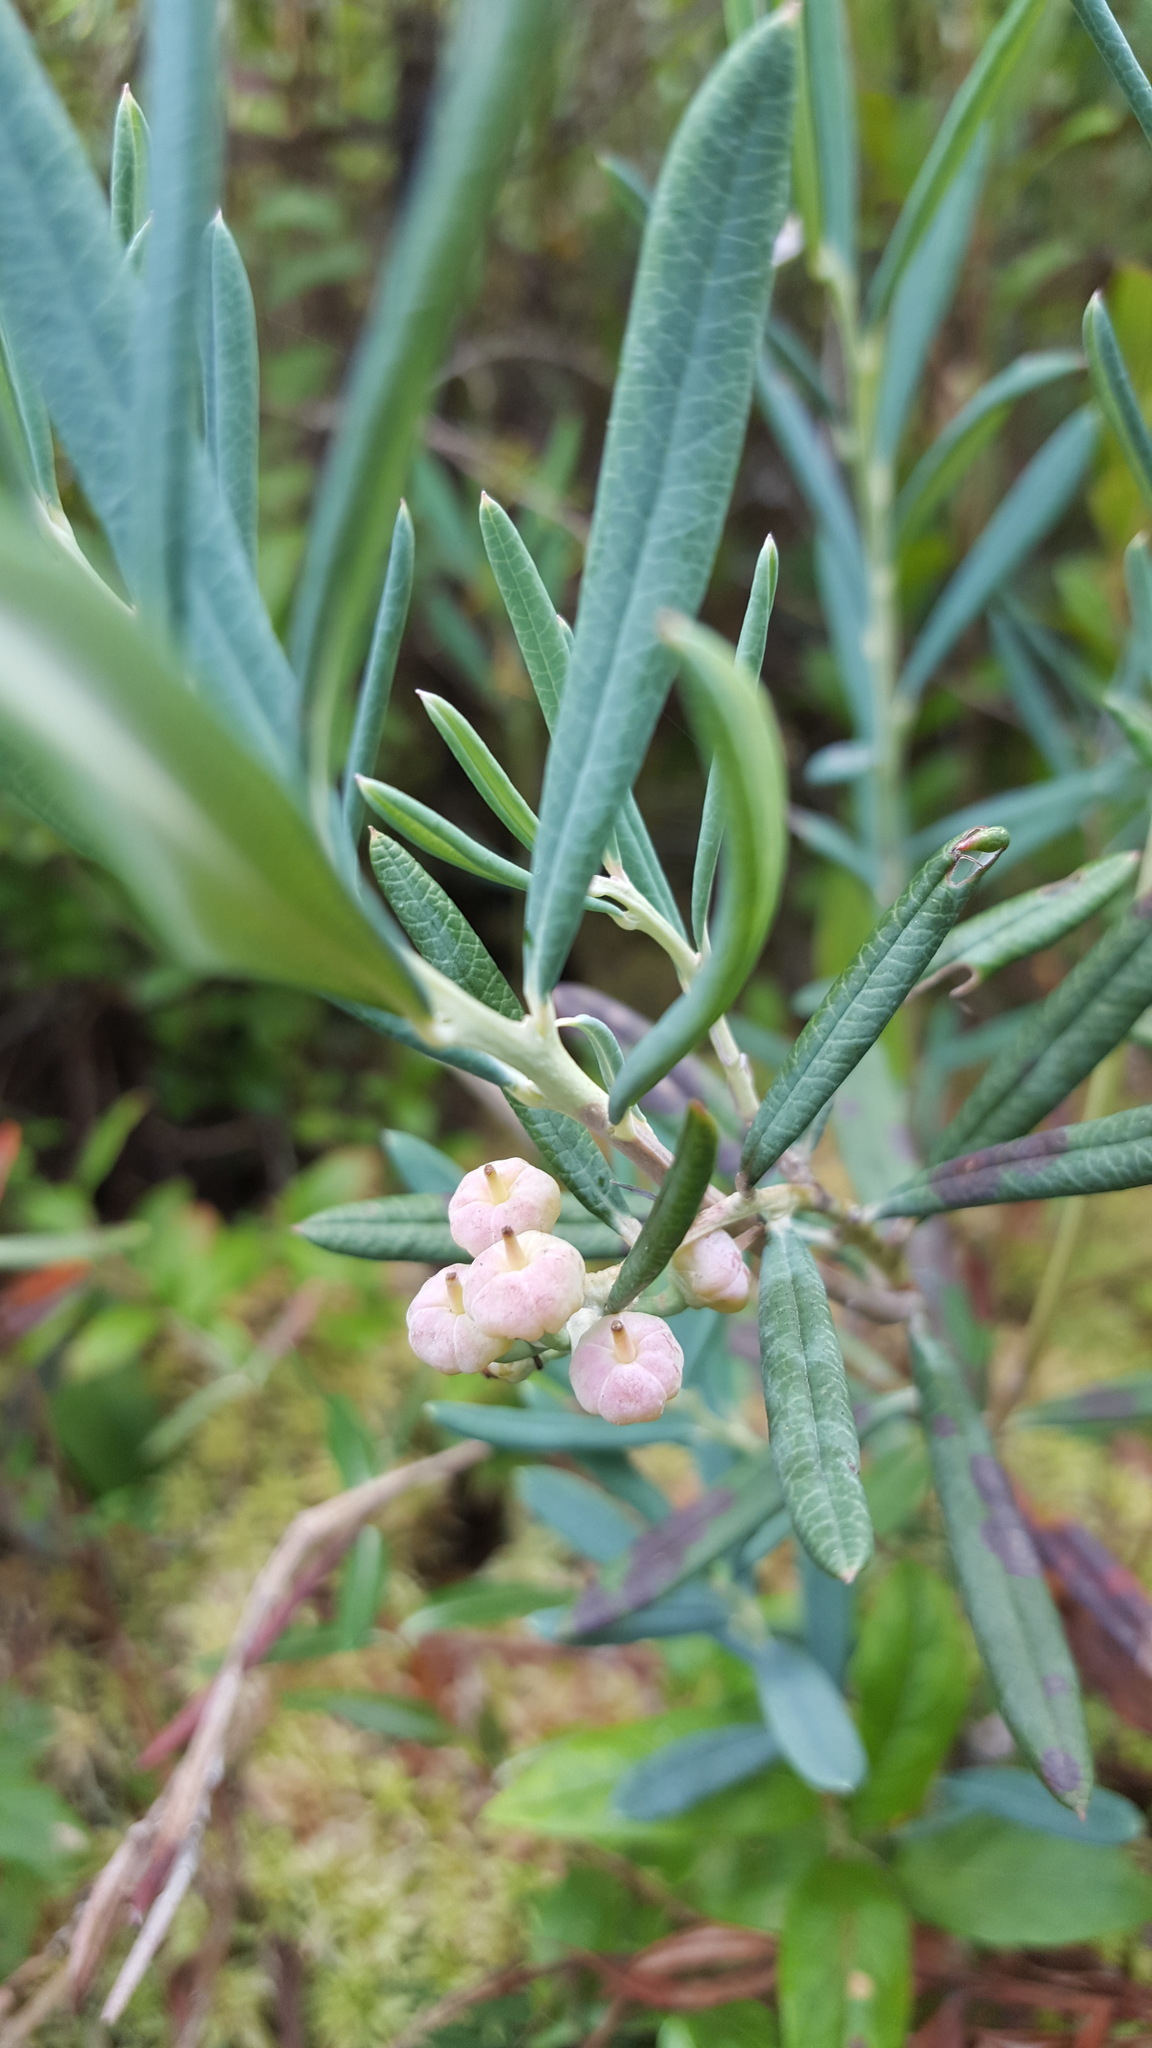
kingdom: Plantae
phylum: Tracheophyta
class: Magnoliopsida
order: Ericales
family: Ericaceae
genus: Andromeda
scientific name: Andromeda polifolia
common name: Bog-rosemary
